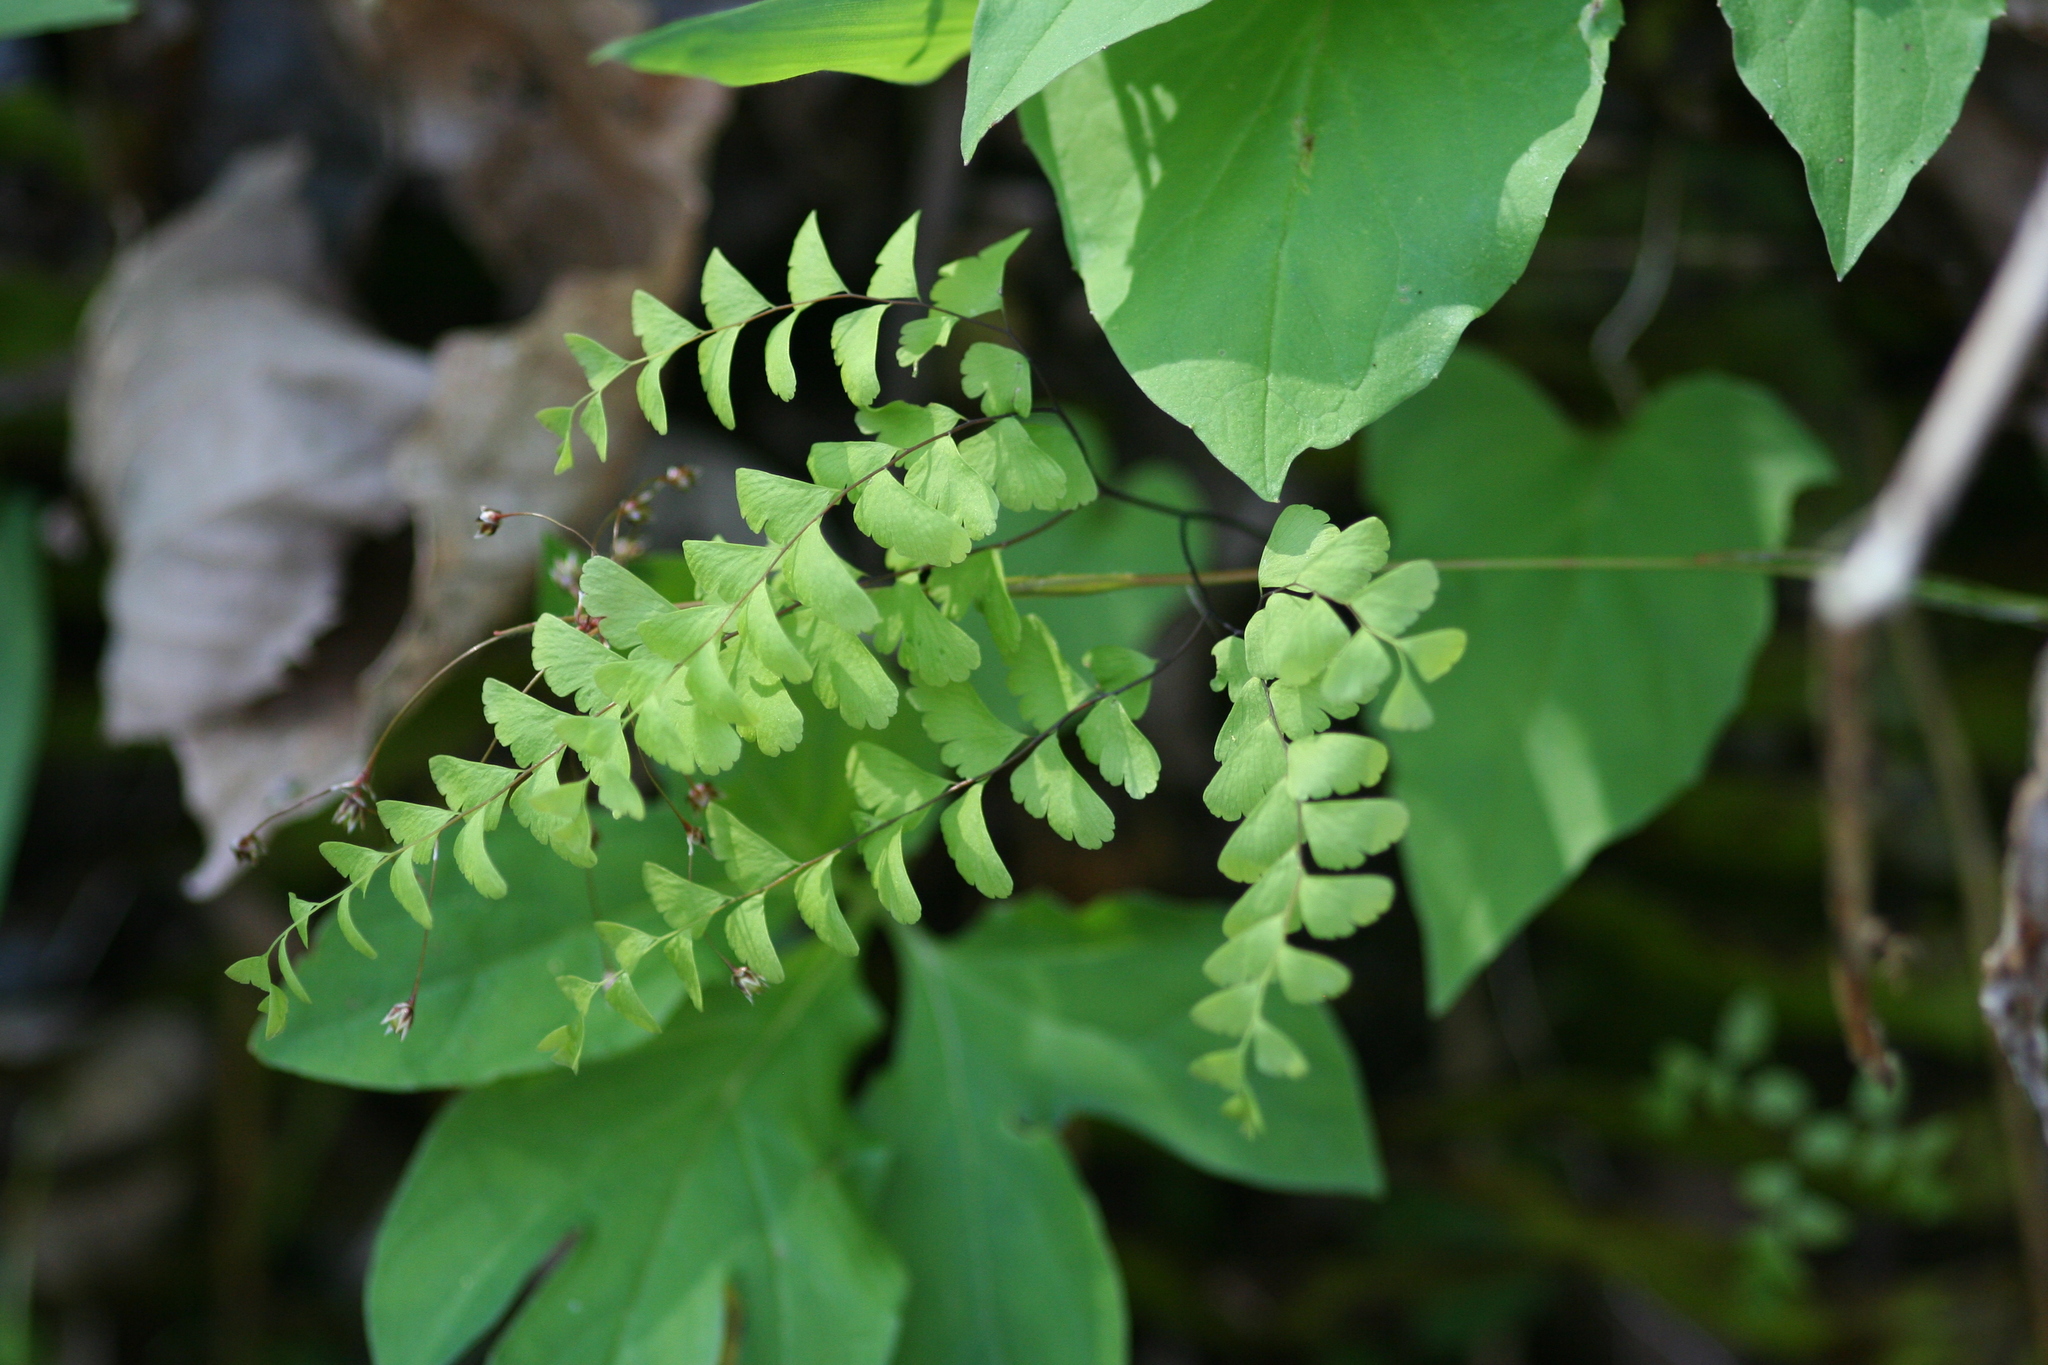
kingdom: Plantae
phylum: Tracheophyta
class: Polypodiopsida
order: Polypodiales
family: Pteridaceae
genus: Adiantum
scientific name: Adiantum pedatum
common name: Five-finger fern
